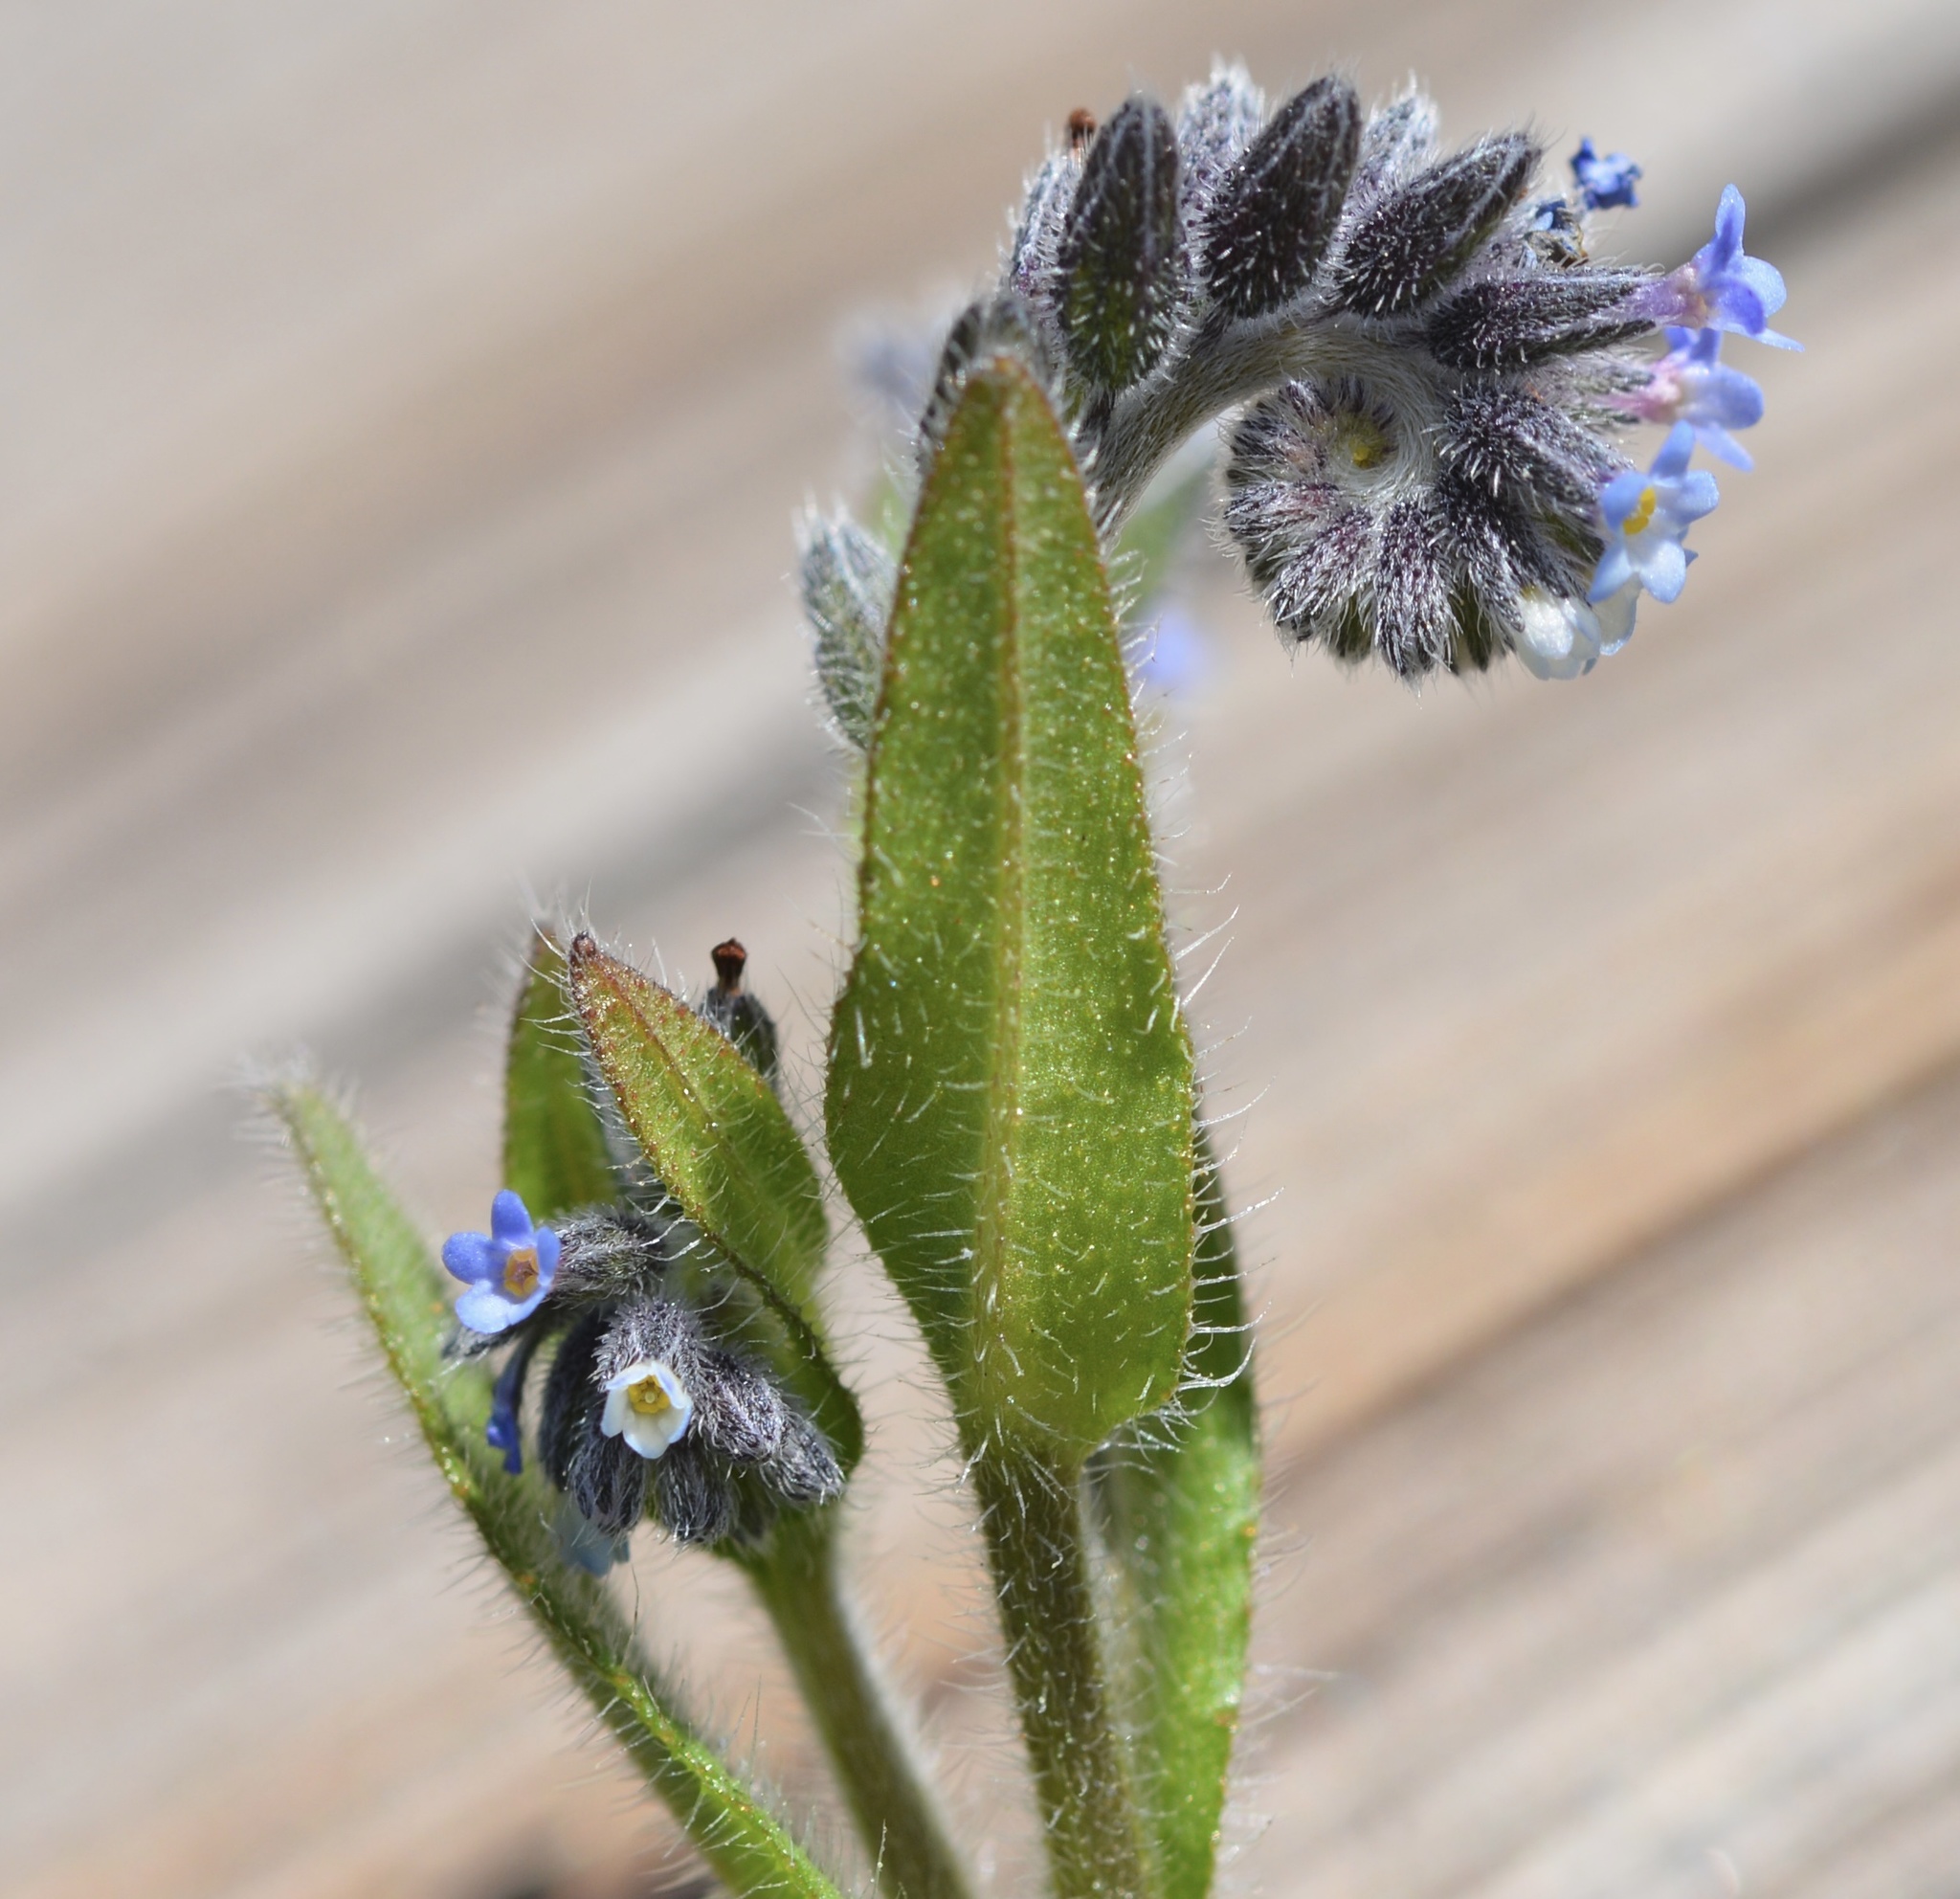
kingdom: Plantae
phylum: Tracheophyta
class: Magnoliopsida
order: Boraginales
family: Boraginaceae
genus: Myosotis
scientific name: Myosotis discolor
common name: Changing forget-me-not
